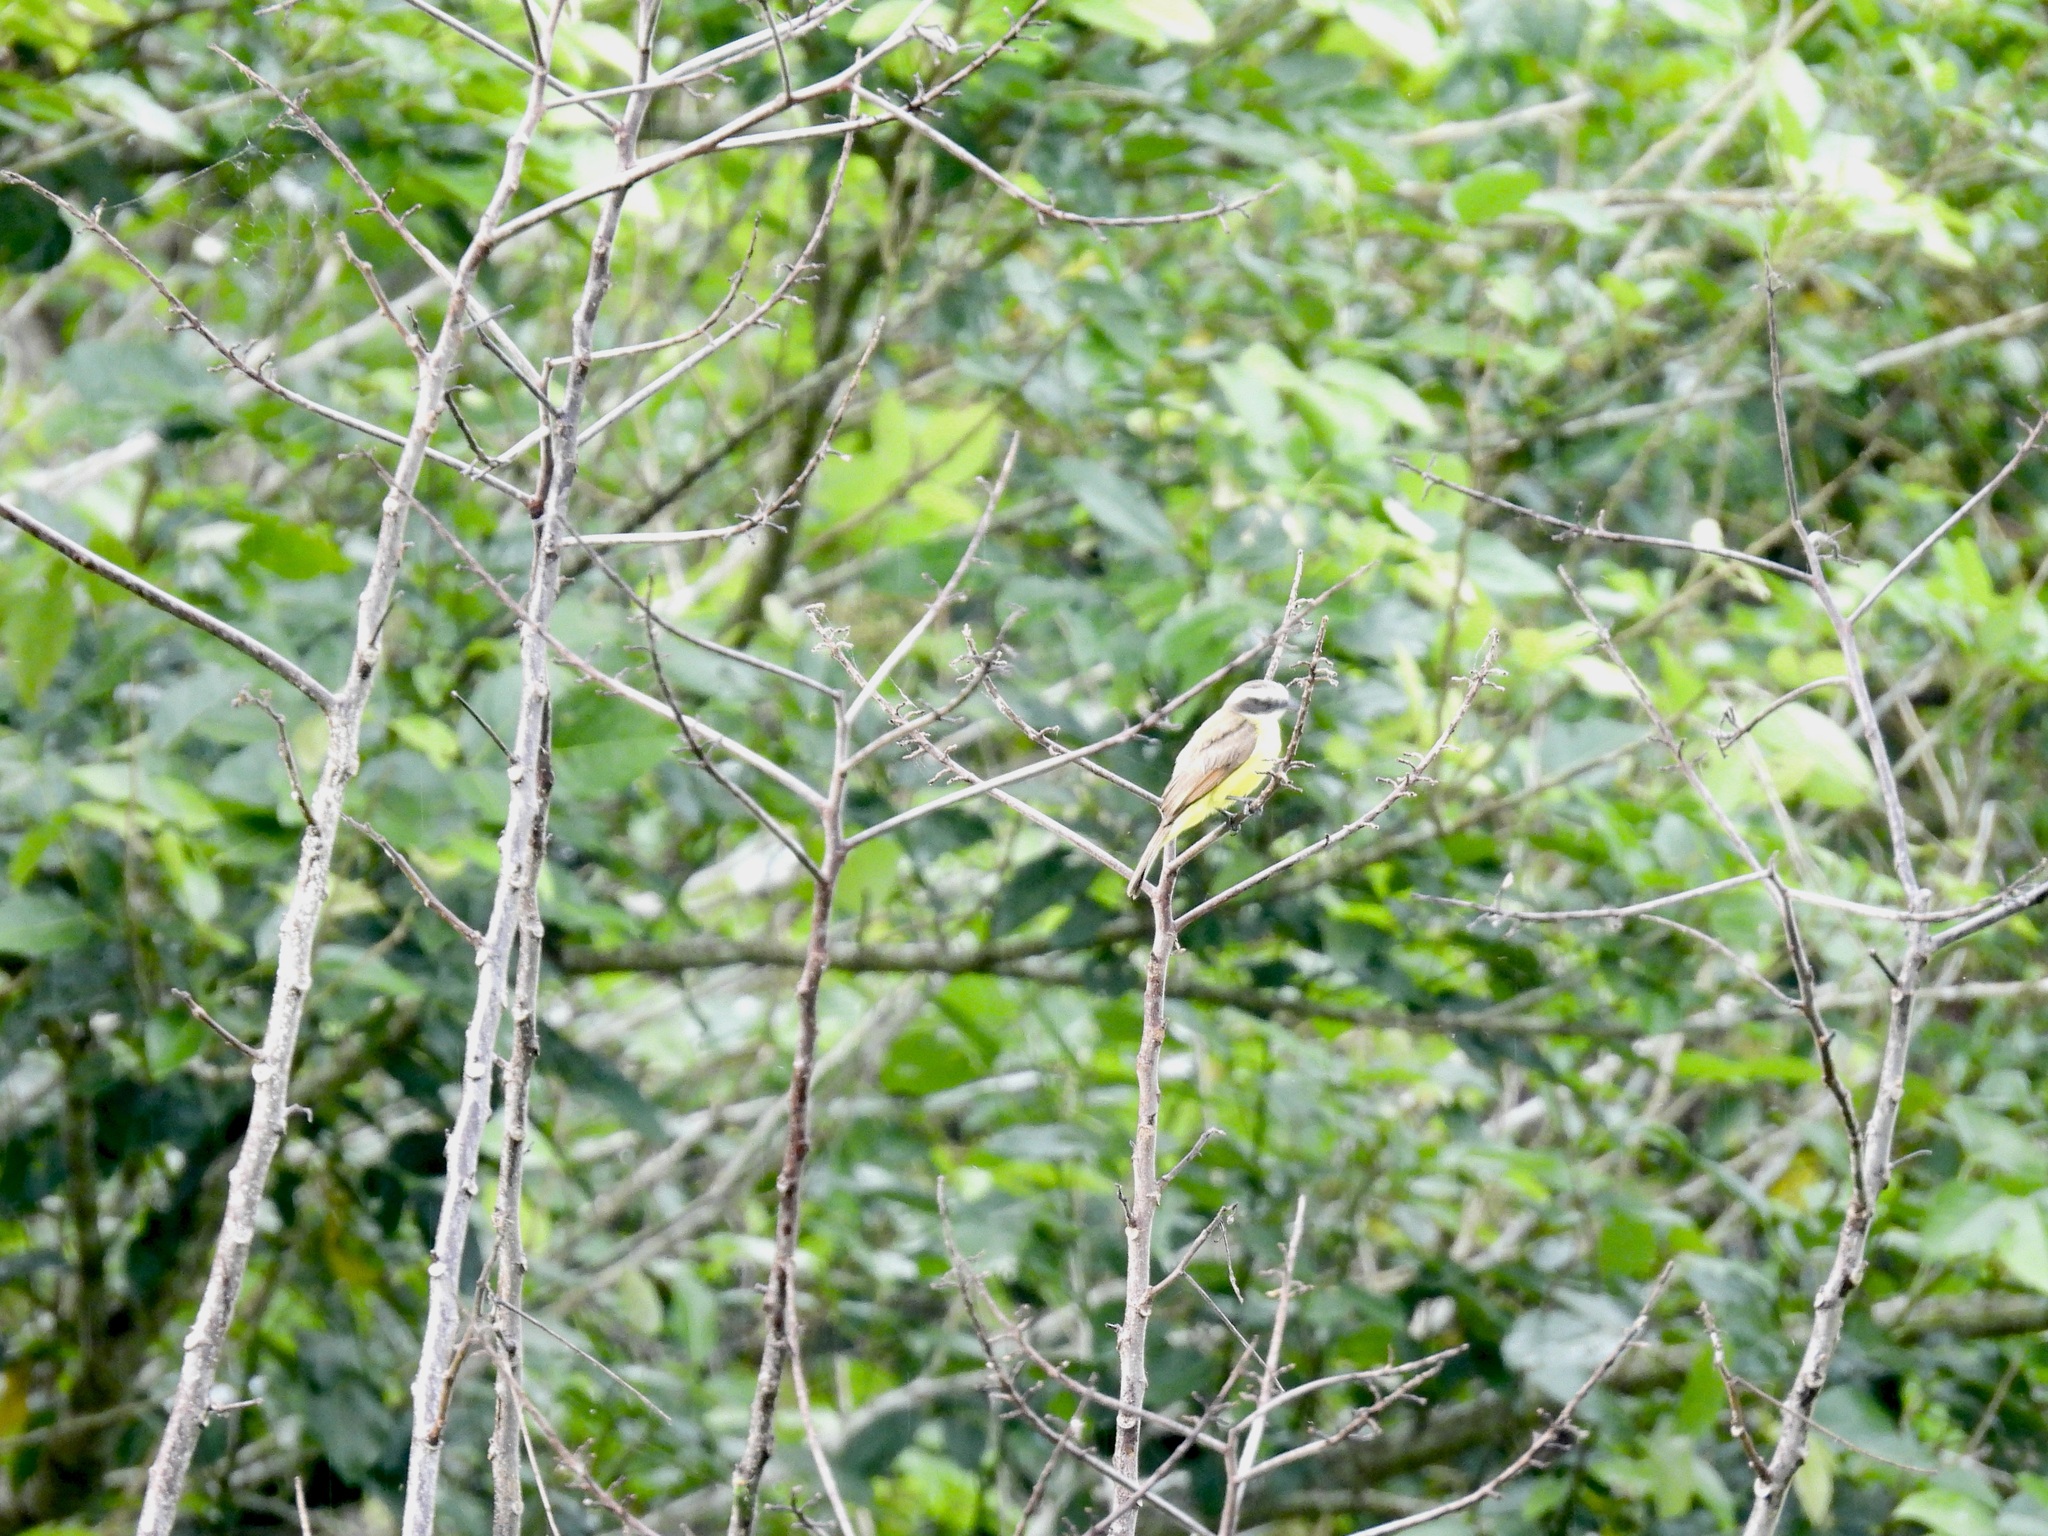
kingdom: Animalia
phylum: Chordata
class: Aves
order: Passeriformes
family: Tyrannidae
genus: Myiozetetes
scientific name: Myiozetetes cayanensis
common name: Rusty-margined flycatcher
